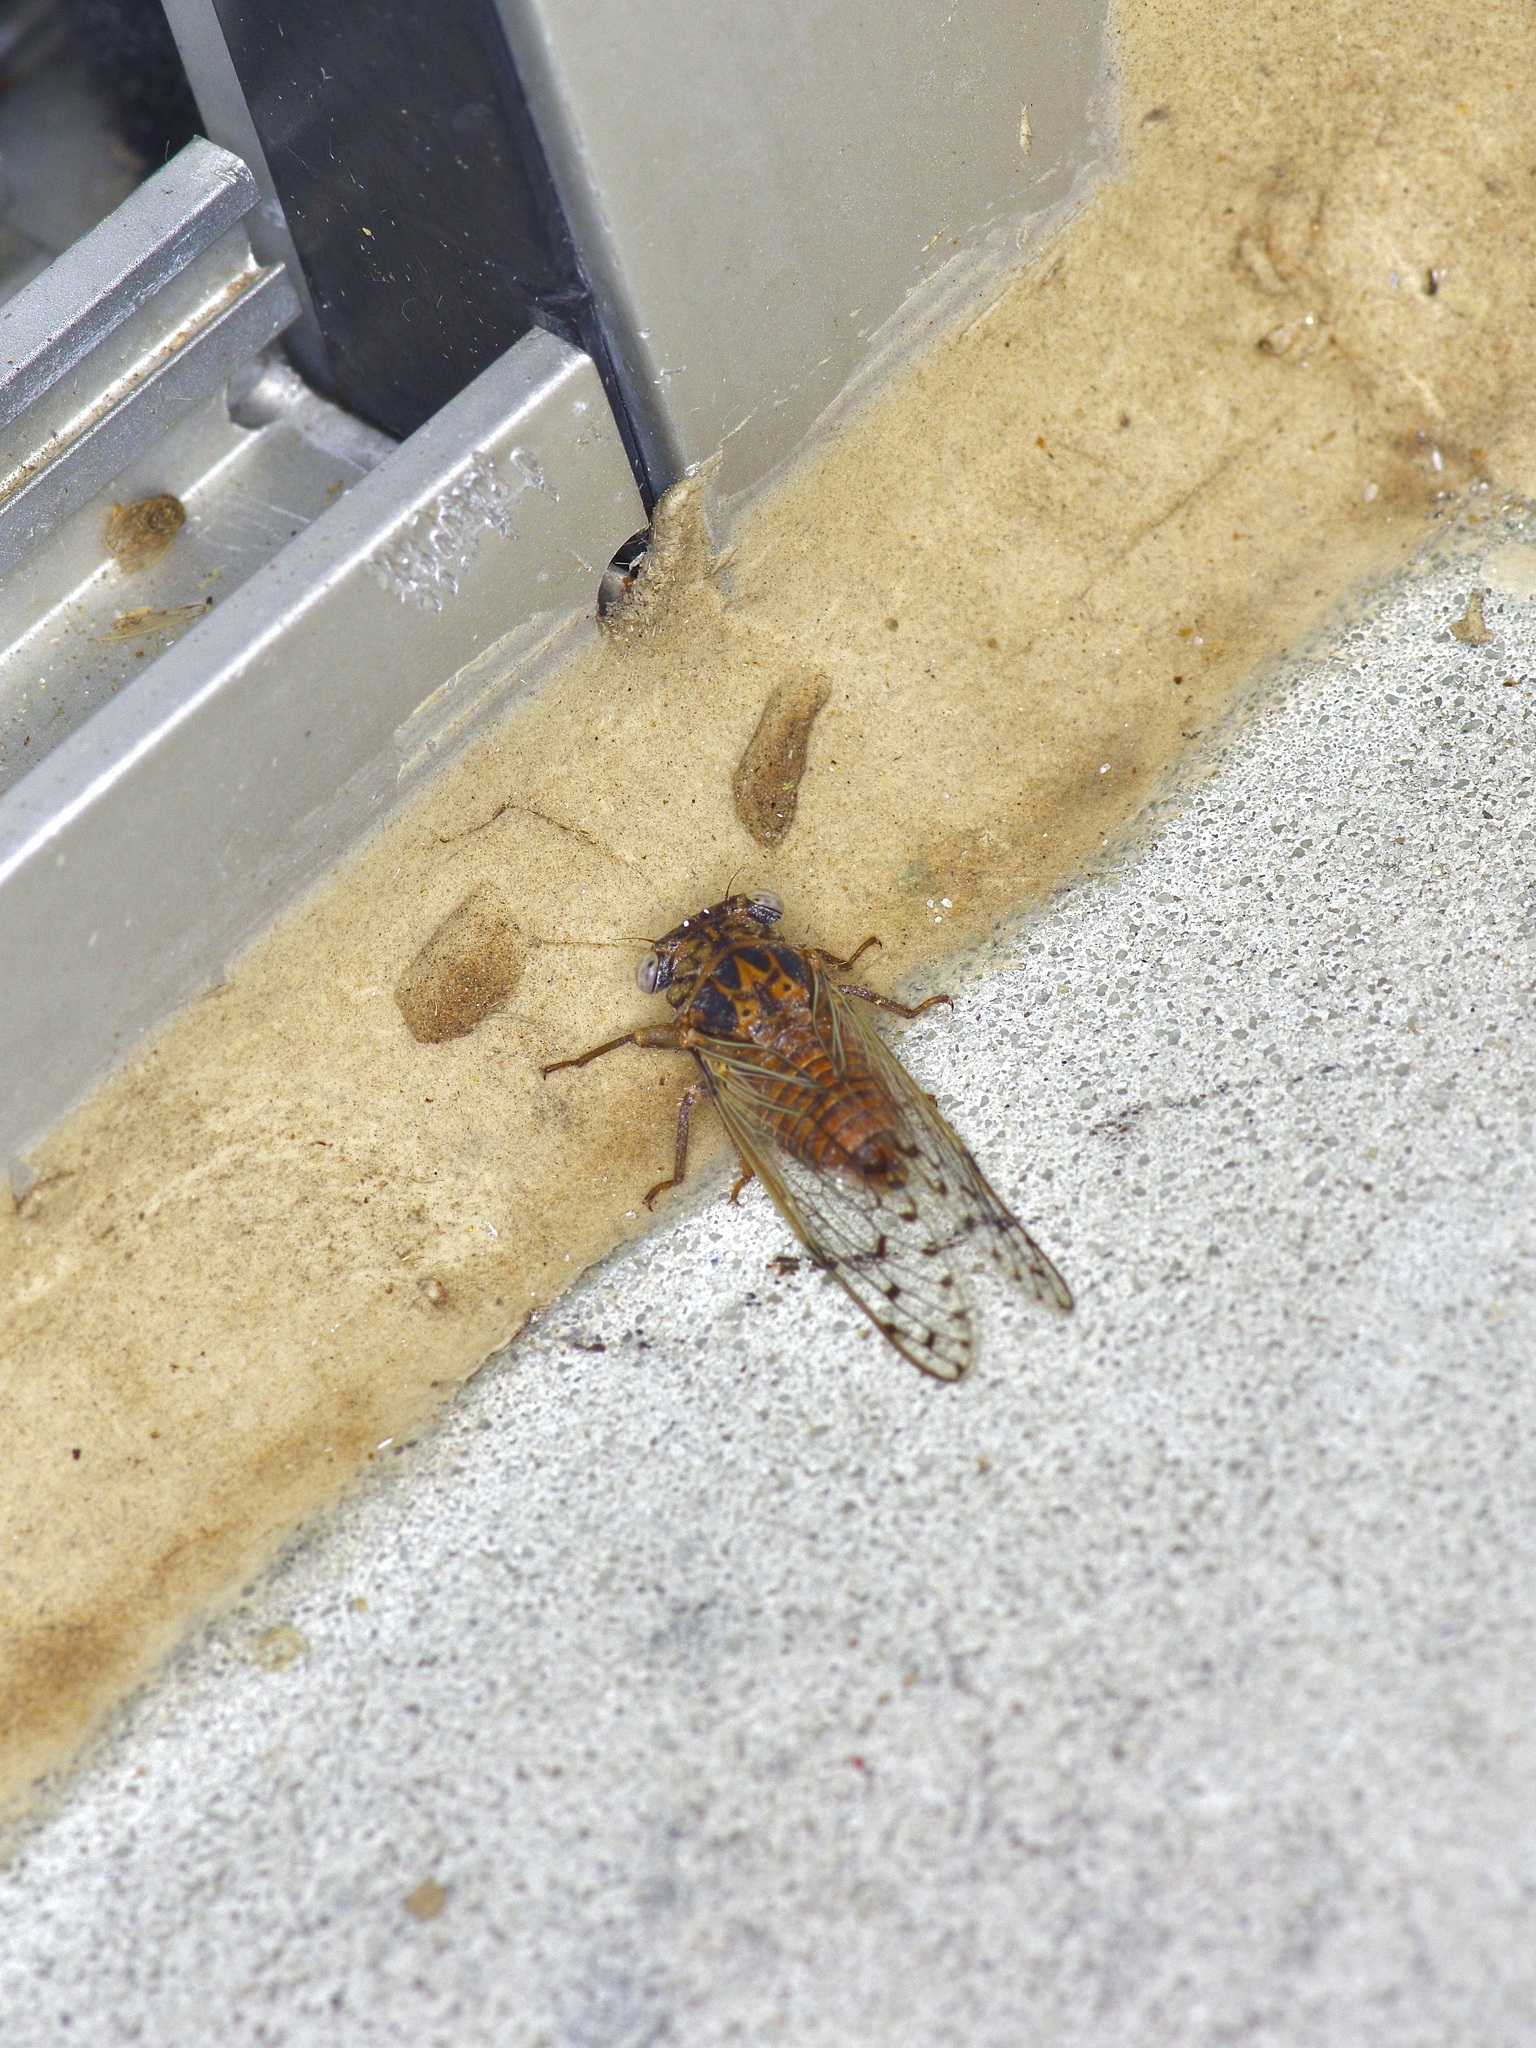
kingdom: Animalia
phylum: Arthropoda
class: Insecta
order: Hemiptera
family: Cicadidae
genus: Pacarina
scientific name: Pacarina puella
